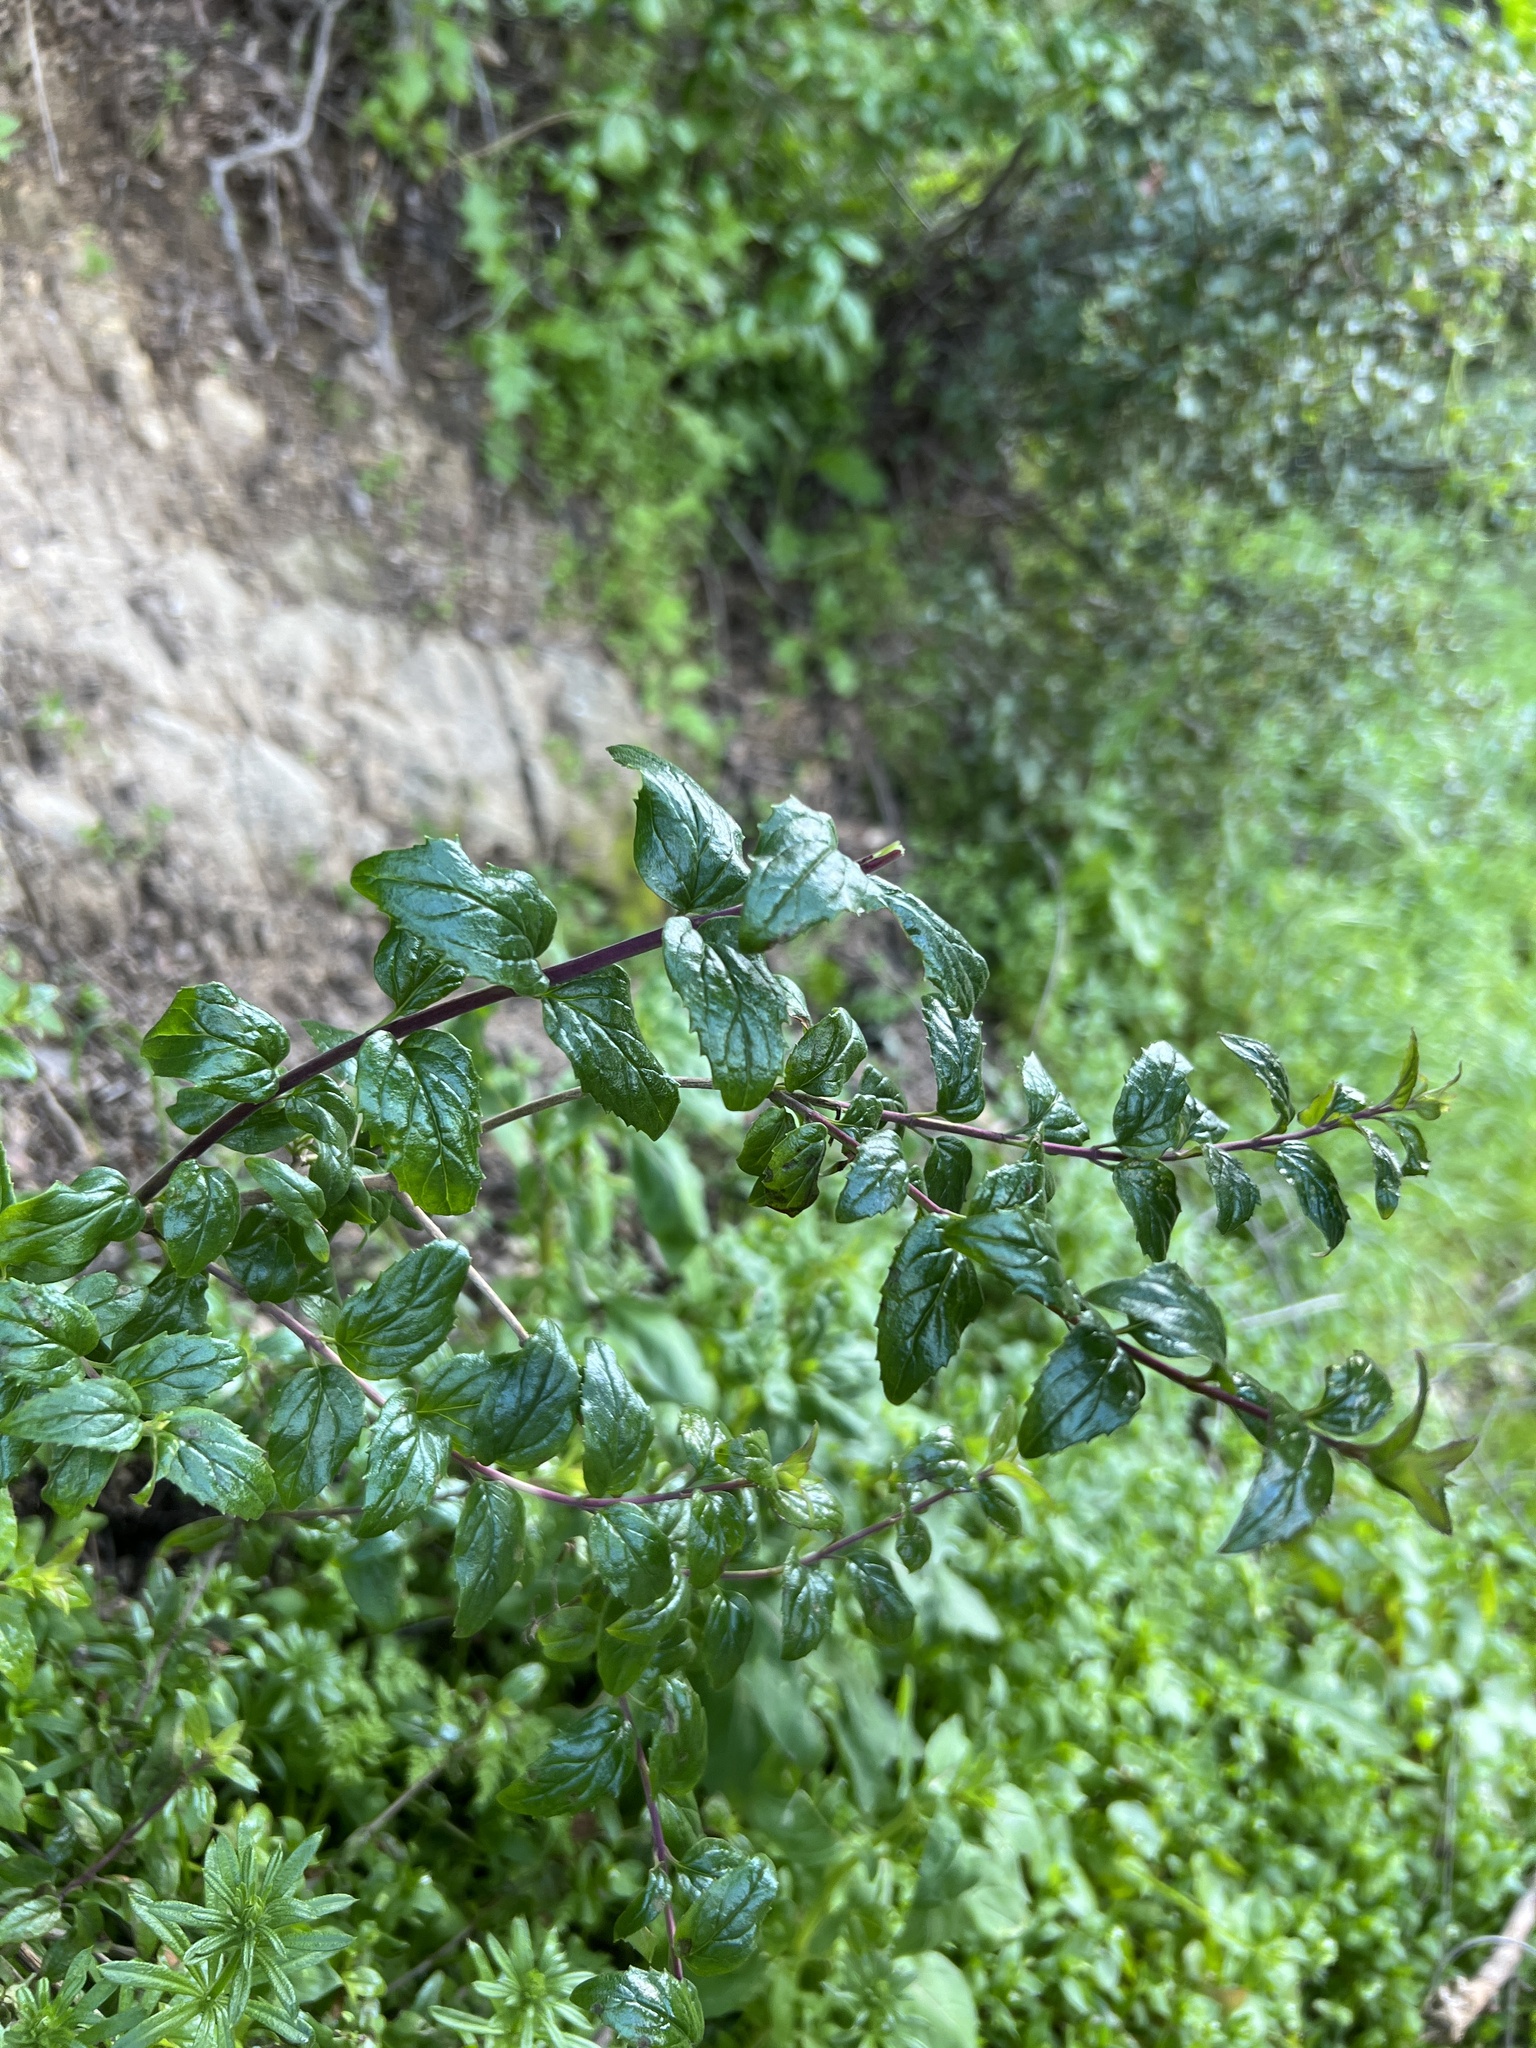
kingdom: Plantae
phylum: Tracheophyta
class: Magnoliopsida
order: Lamiales
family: Plantaginaceae
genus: Keckiella
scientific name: Keckiella cordifolia
